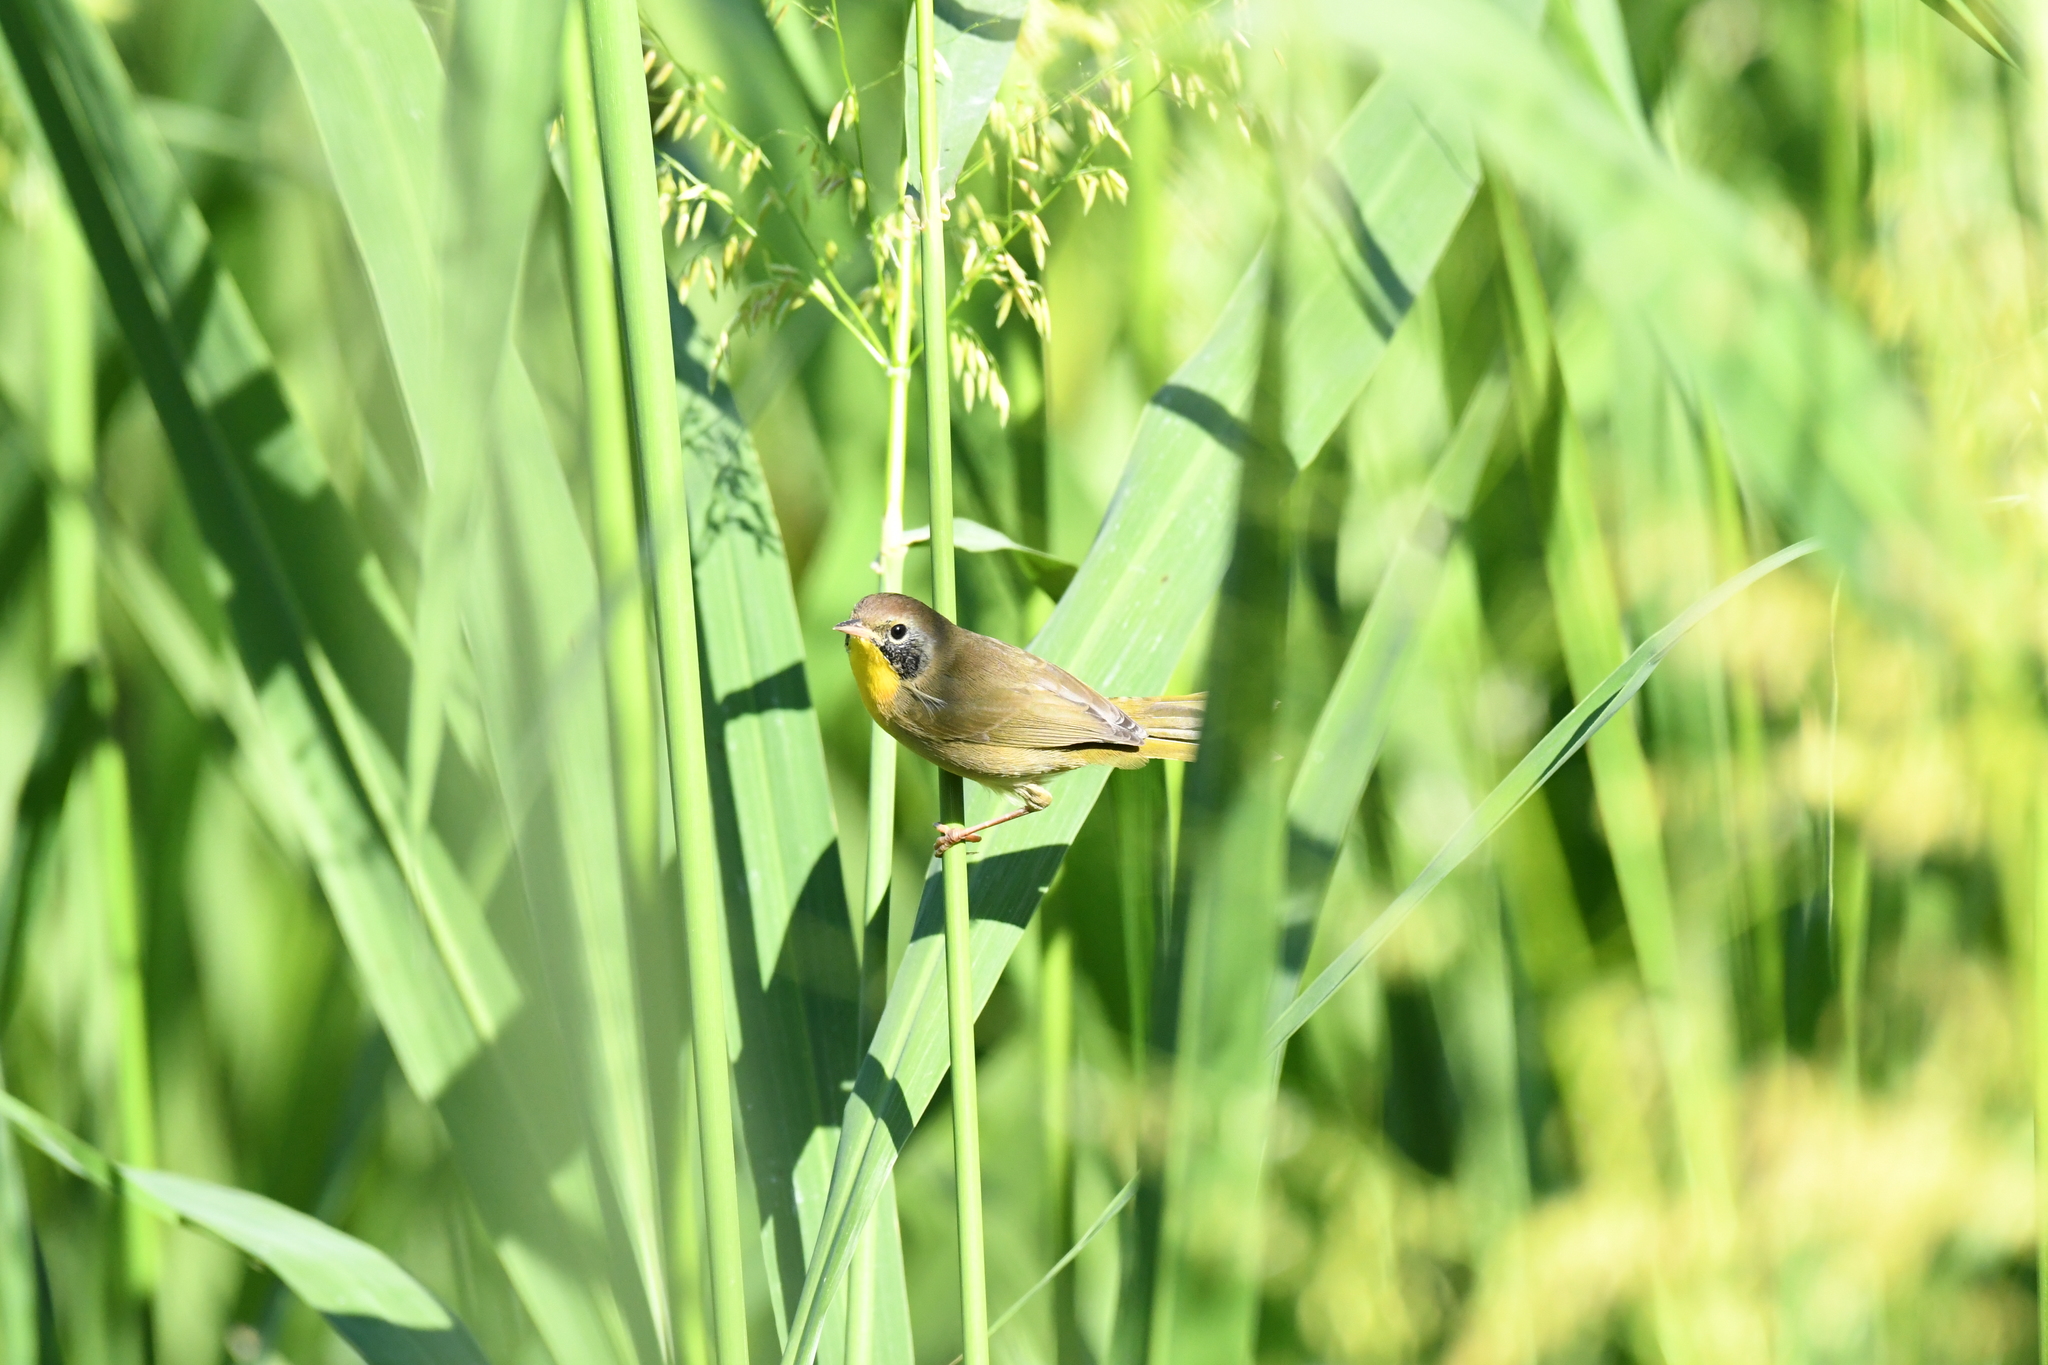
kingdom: Animalia
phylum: Chordata
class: Aves
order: Passeriformes
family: Parulidae
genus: Geothlypis
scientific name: Geothlypis trichas
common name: Common yellowthroat
